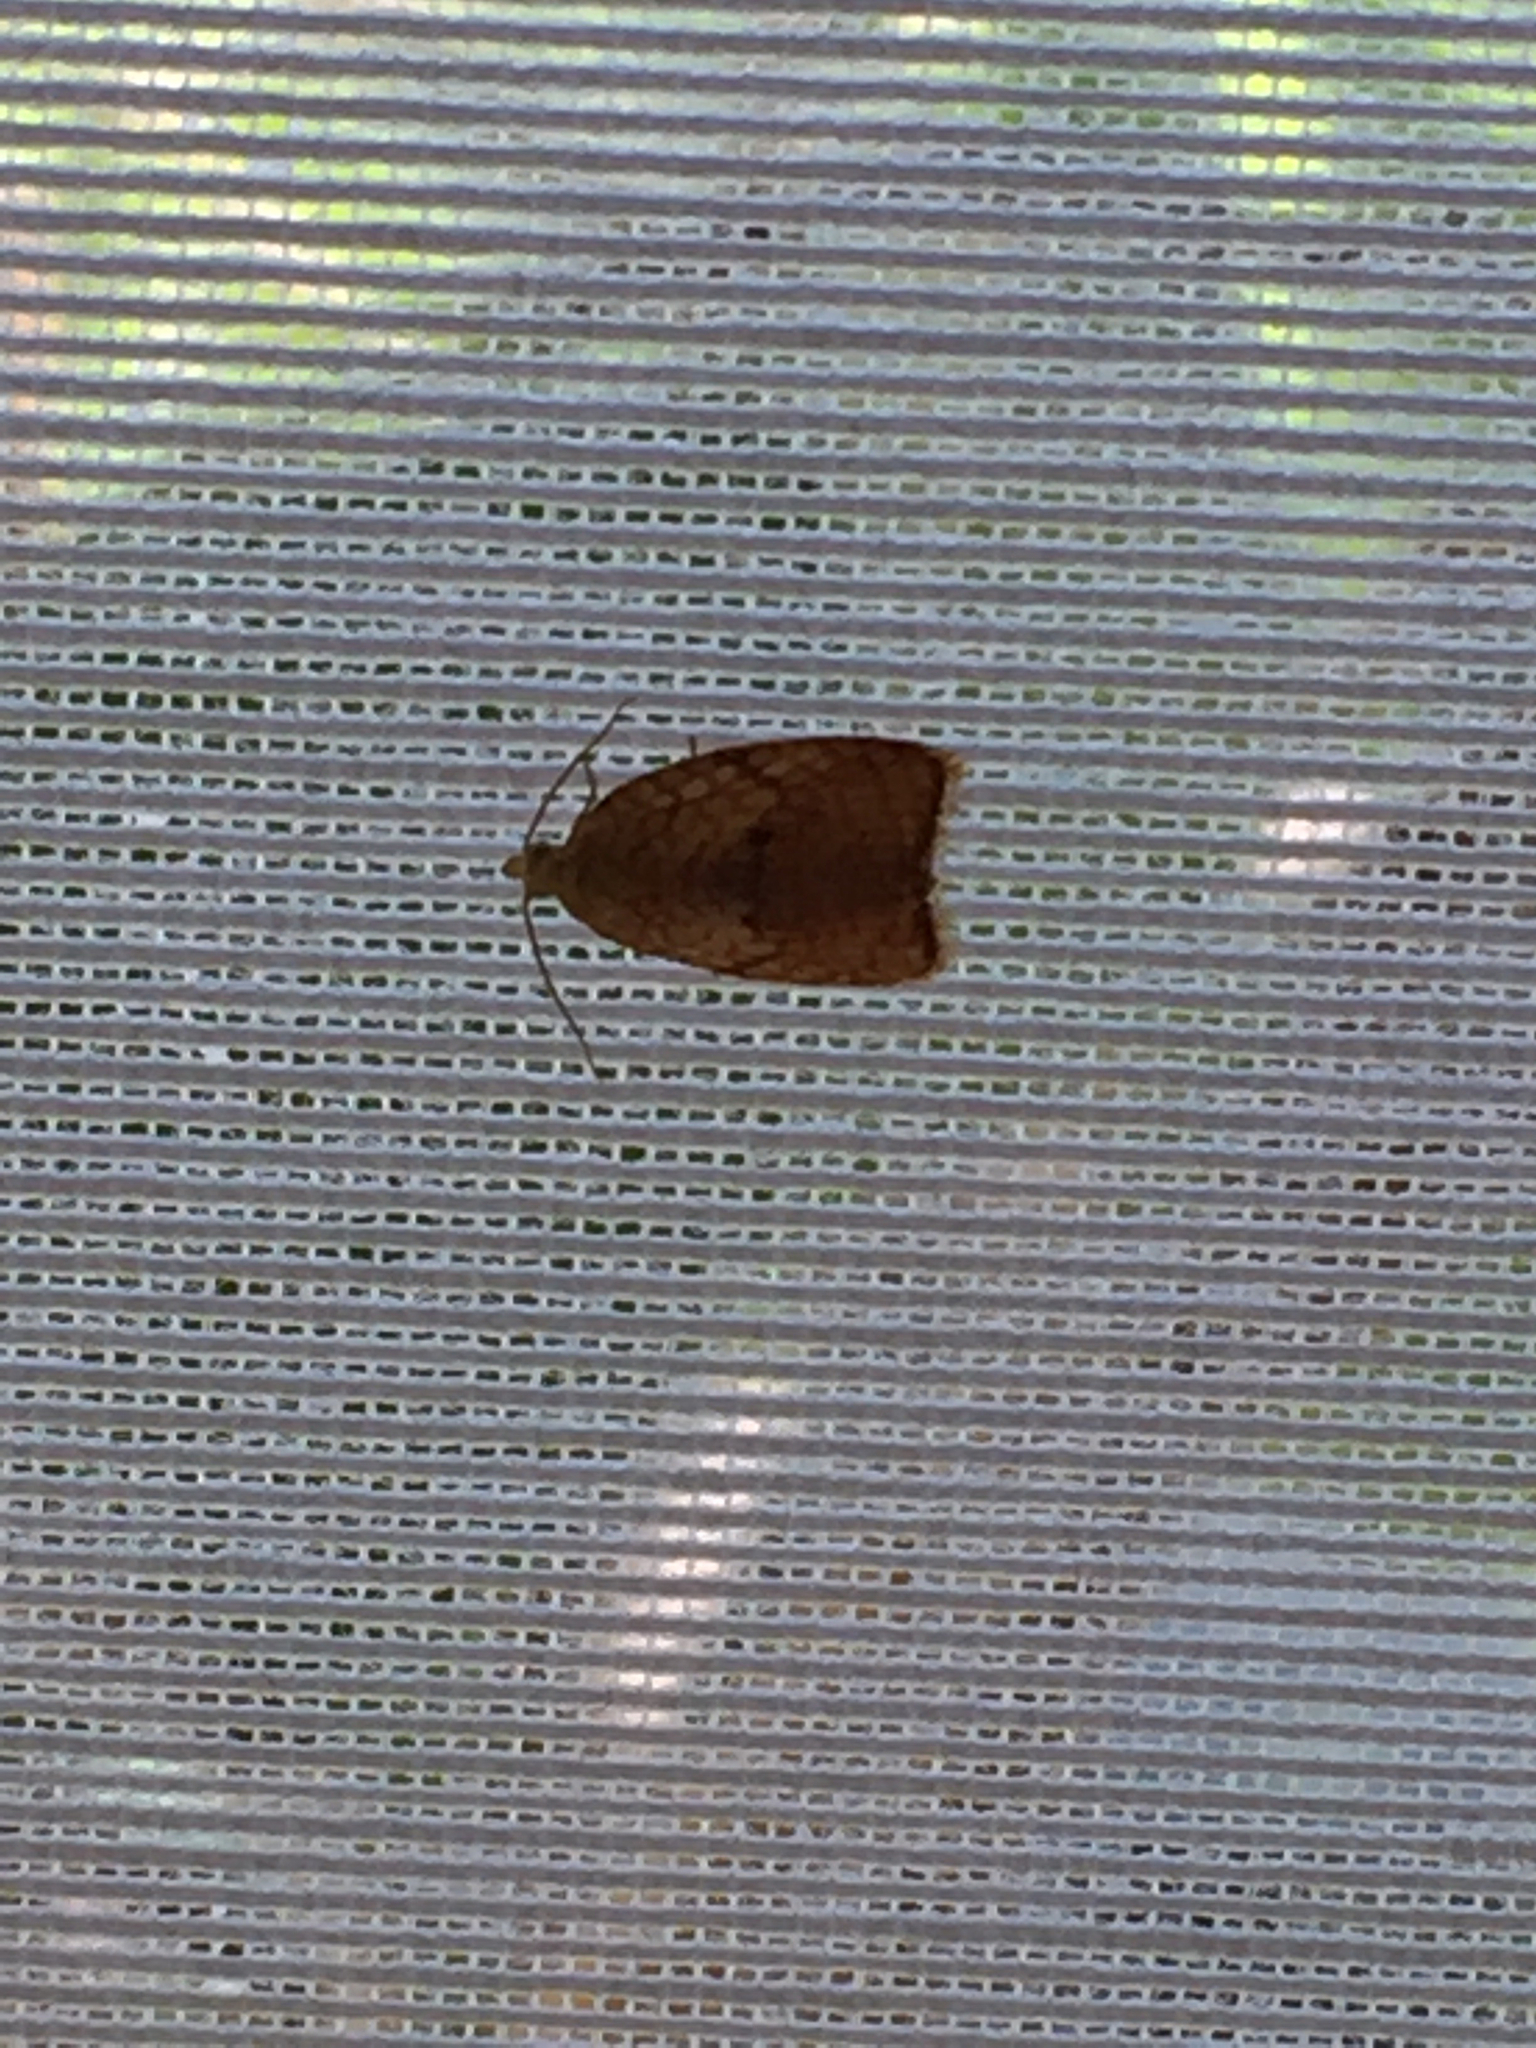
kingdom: Animalia
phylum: Arthropoda
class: Insecta
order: Lepidoptera
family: Tortricidae
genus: Acleris
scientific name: Acleris forsskaleana
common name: Maple button
